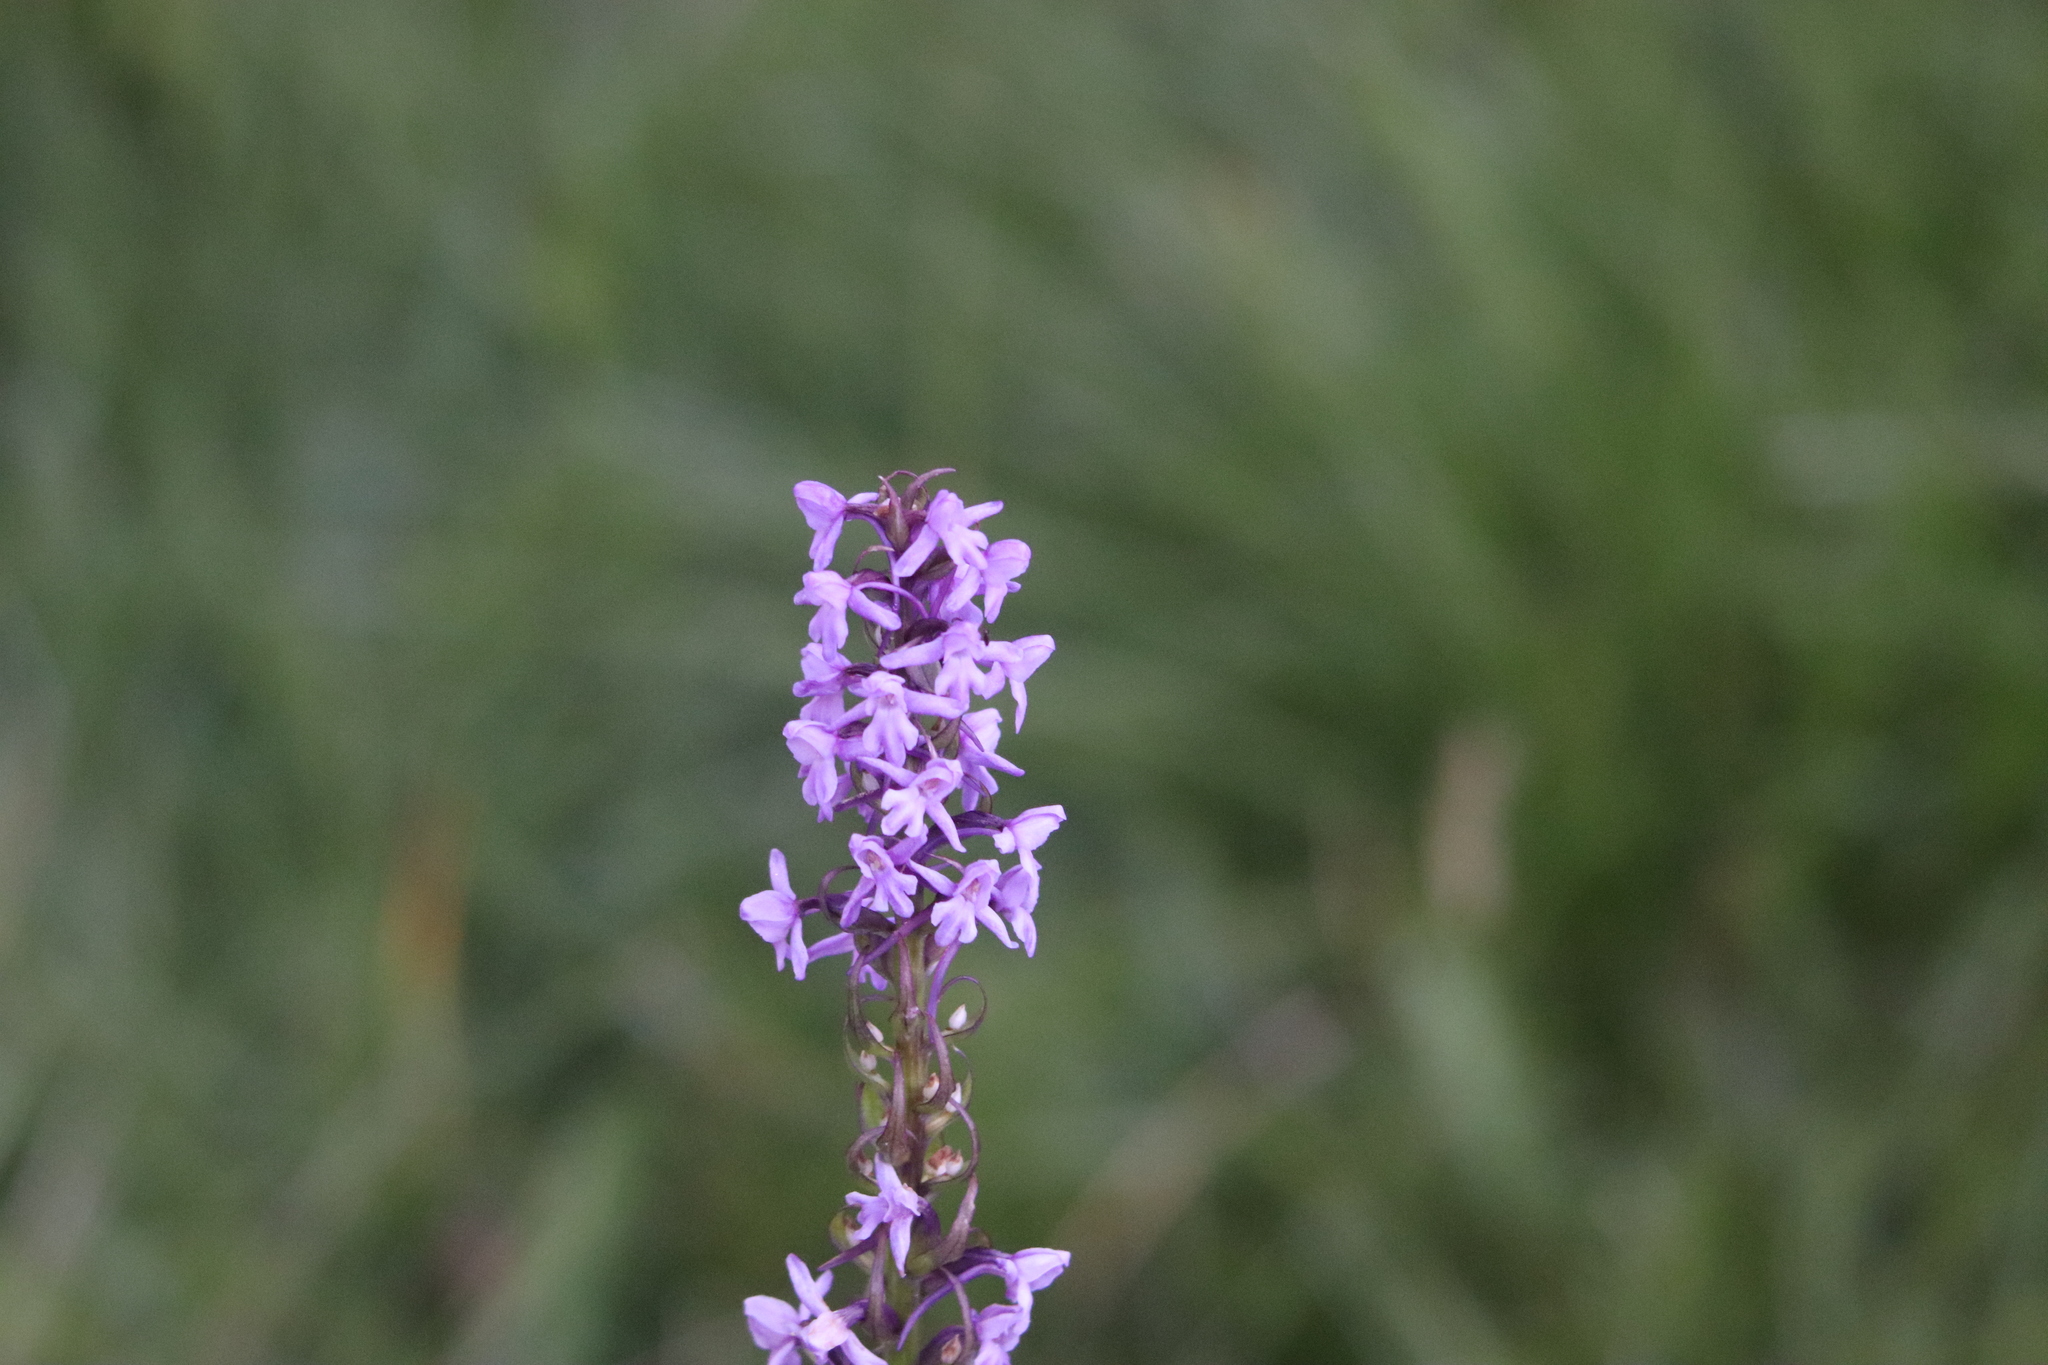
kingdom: Plantae
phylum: Tracheophyta
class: Liliopsida
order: Asparagales
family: Orchidaceae
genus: Gymnadenia
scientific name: Gymnadenia conopsea
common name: Fragrant orchid
